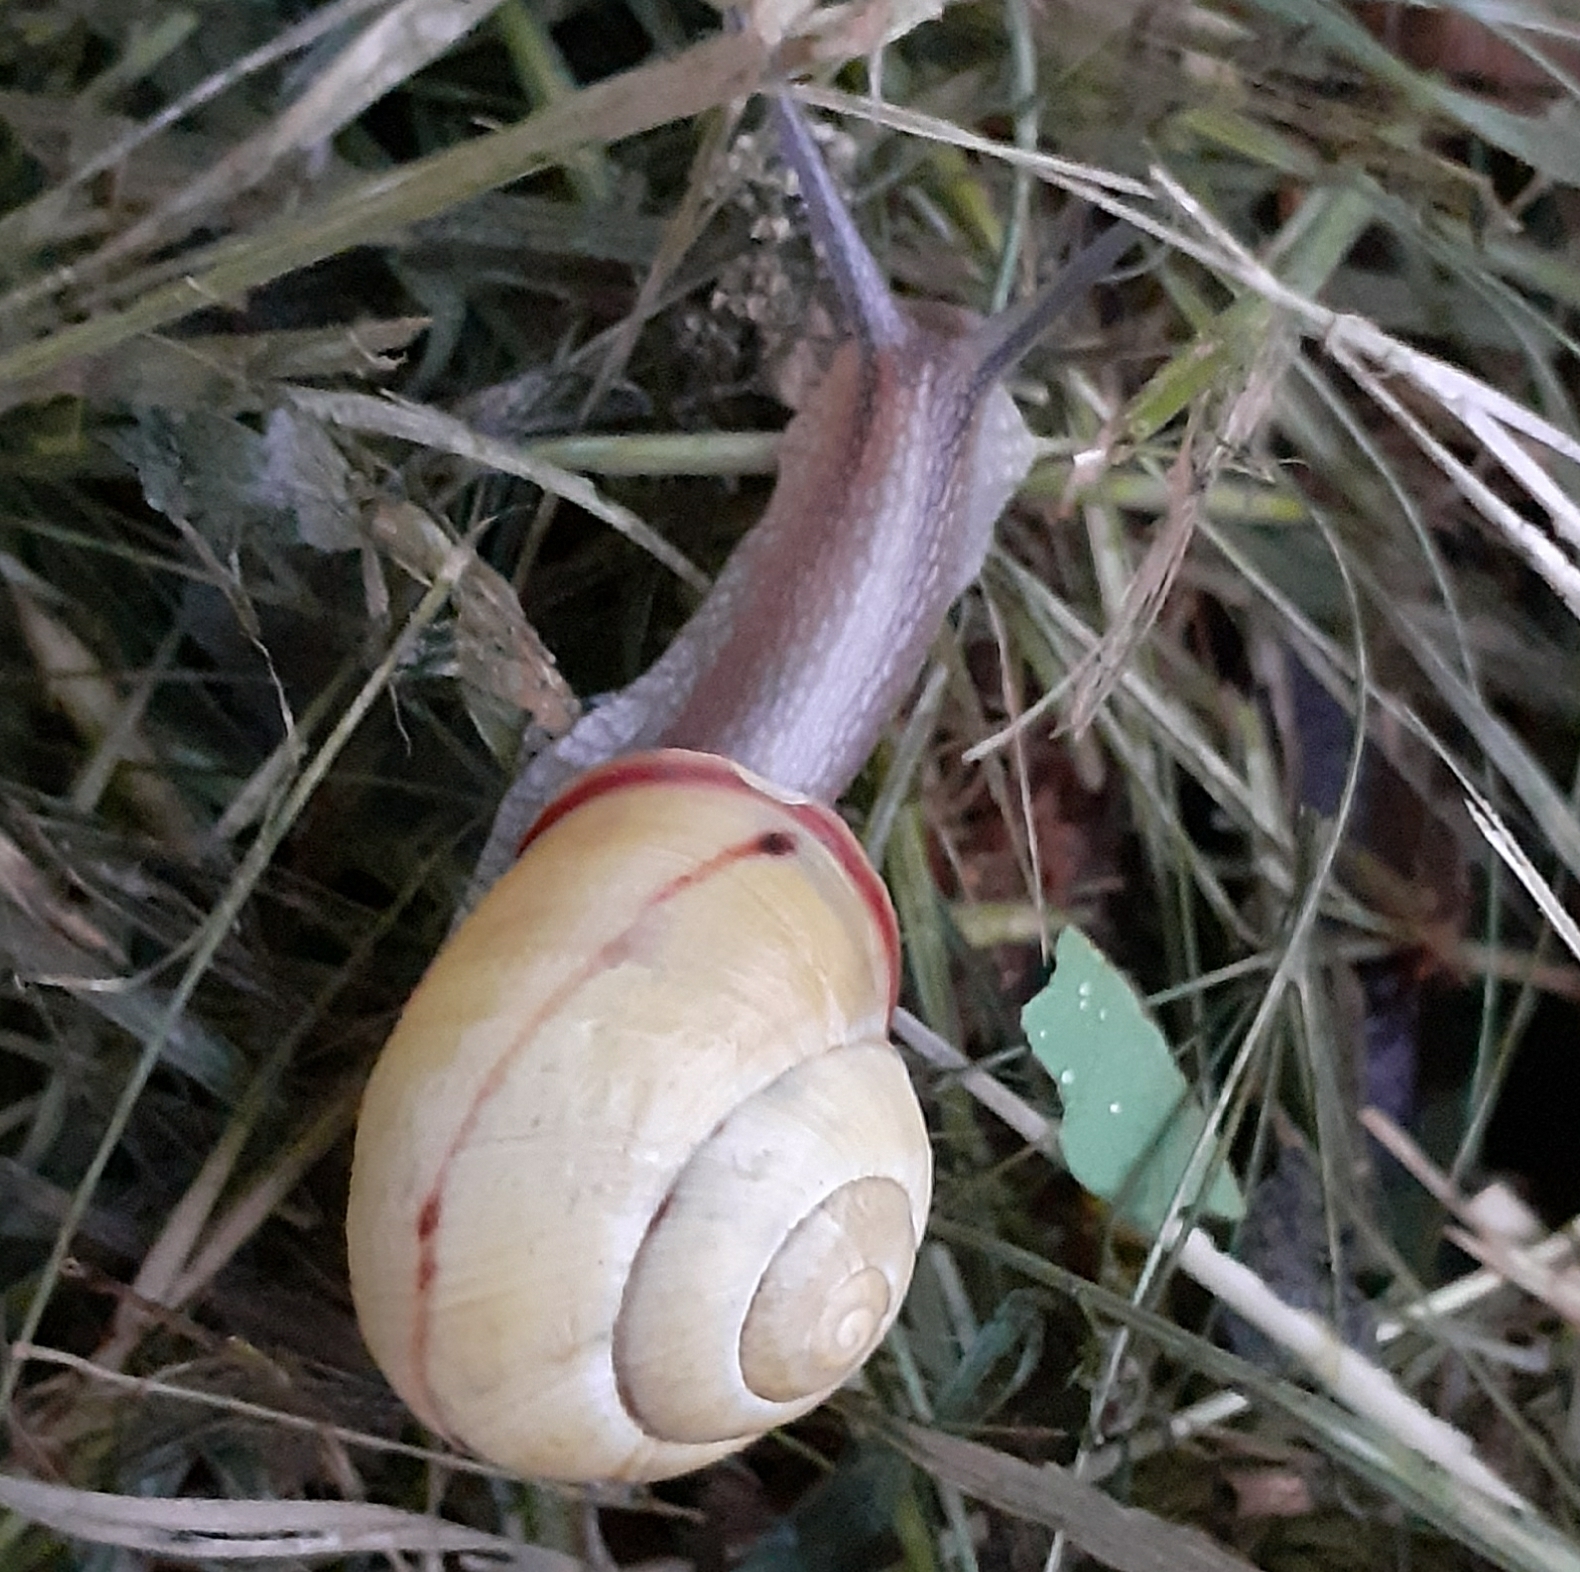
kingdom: Animalia
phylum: Mollusca
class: Gastropoda
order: Stylommatophora
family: Helicidae
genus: Cepaea
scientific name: Cepaea nemoralis
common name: Grovesnail
